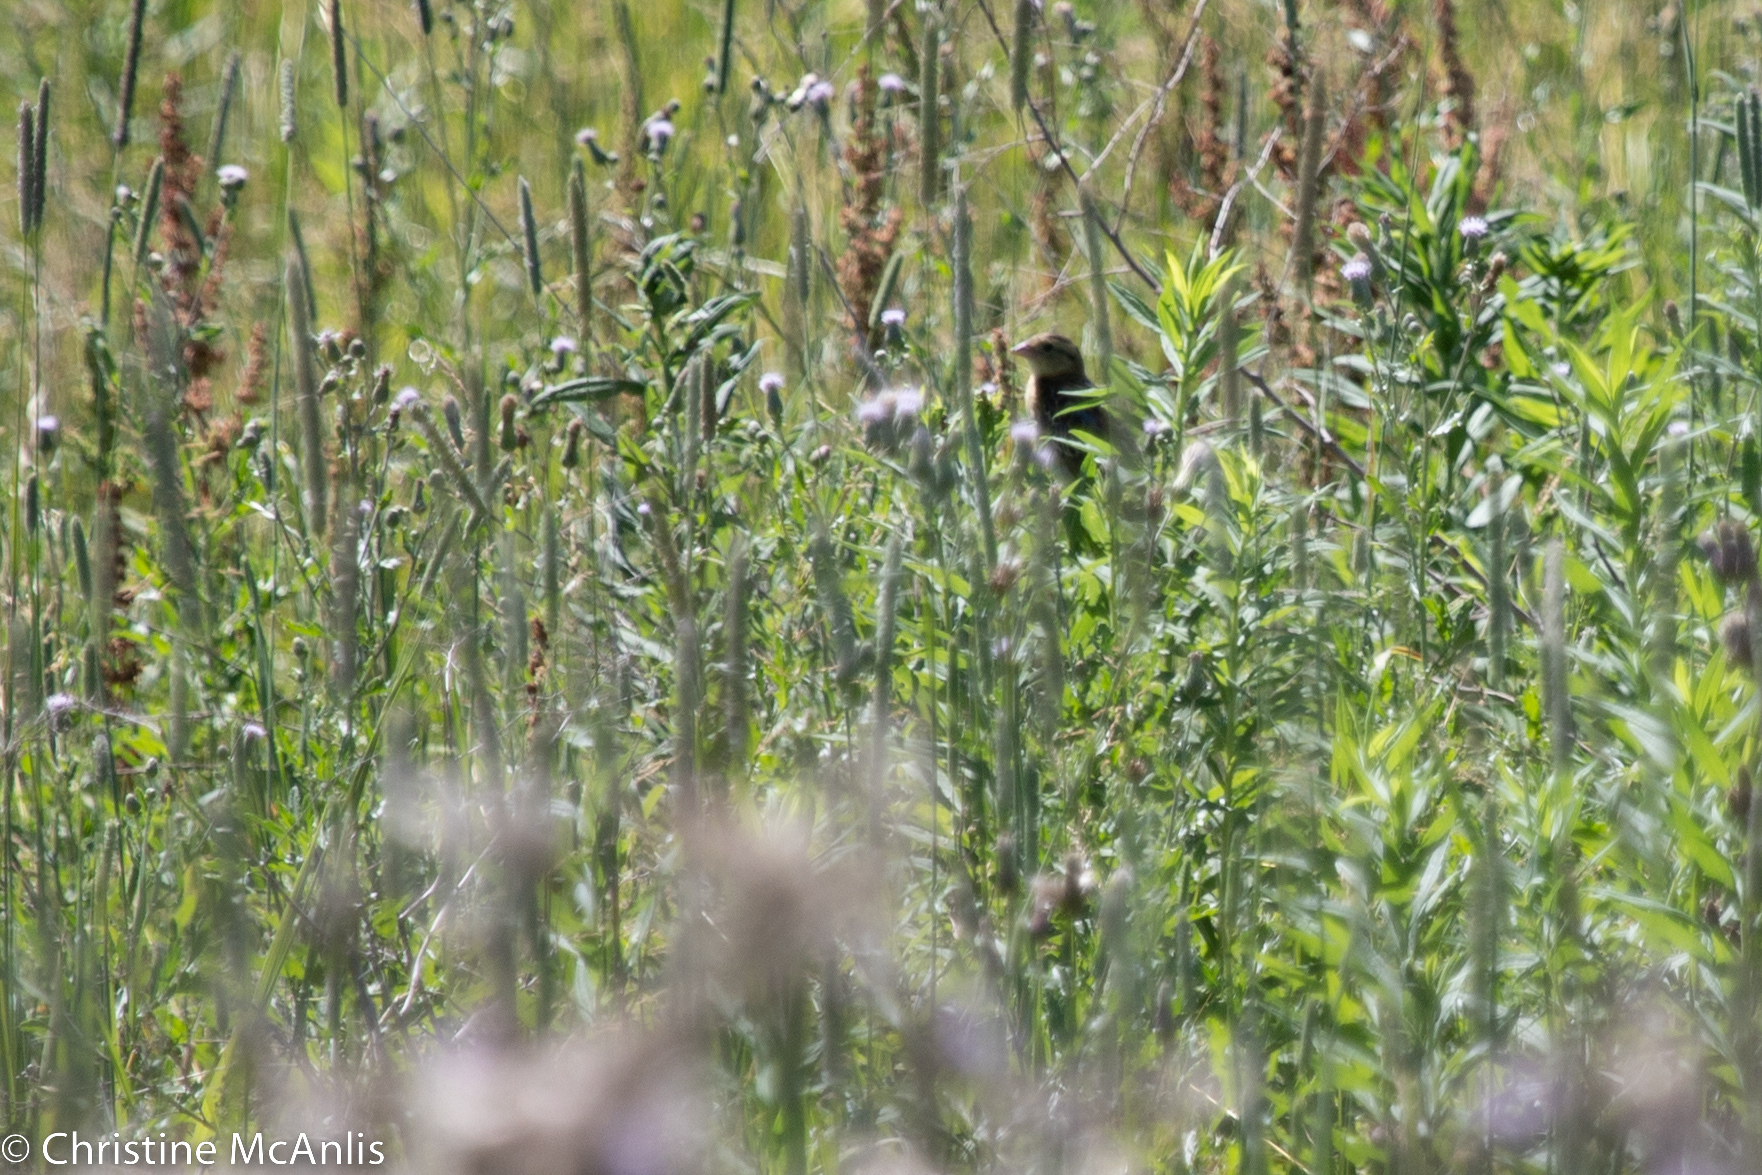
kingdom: Animalia
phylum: Chordata
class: Aves
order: Passeriformes
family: Icteridae
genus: Dolichonyx
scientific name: Dolichonyx oryzivorus
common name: Bobolink
